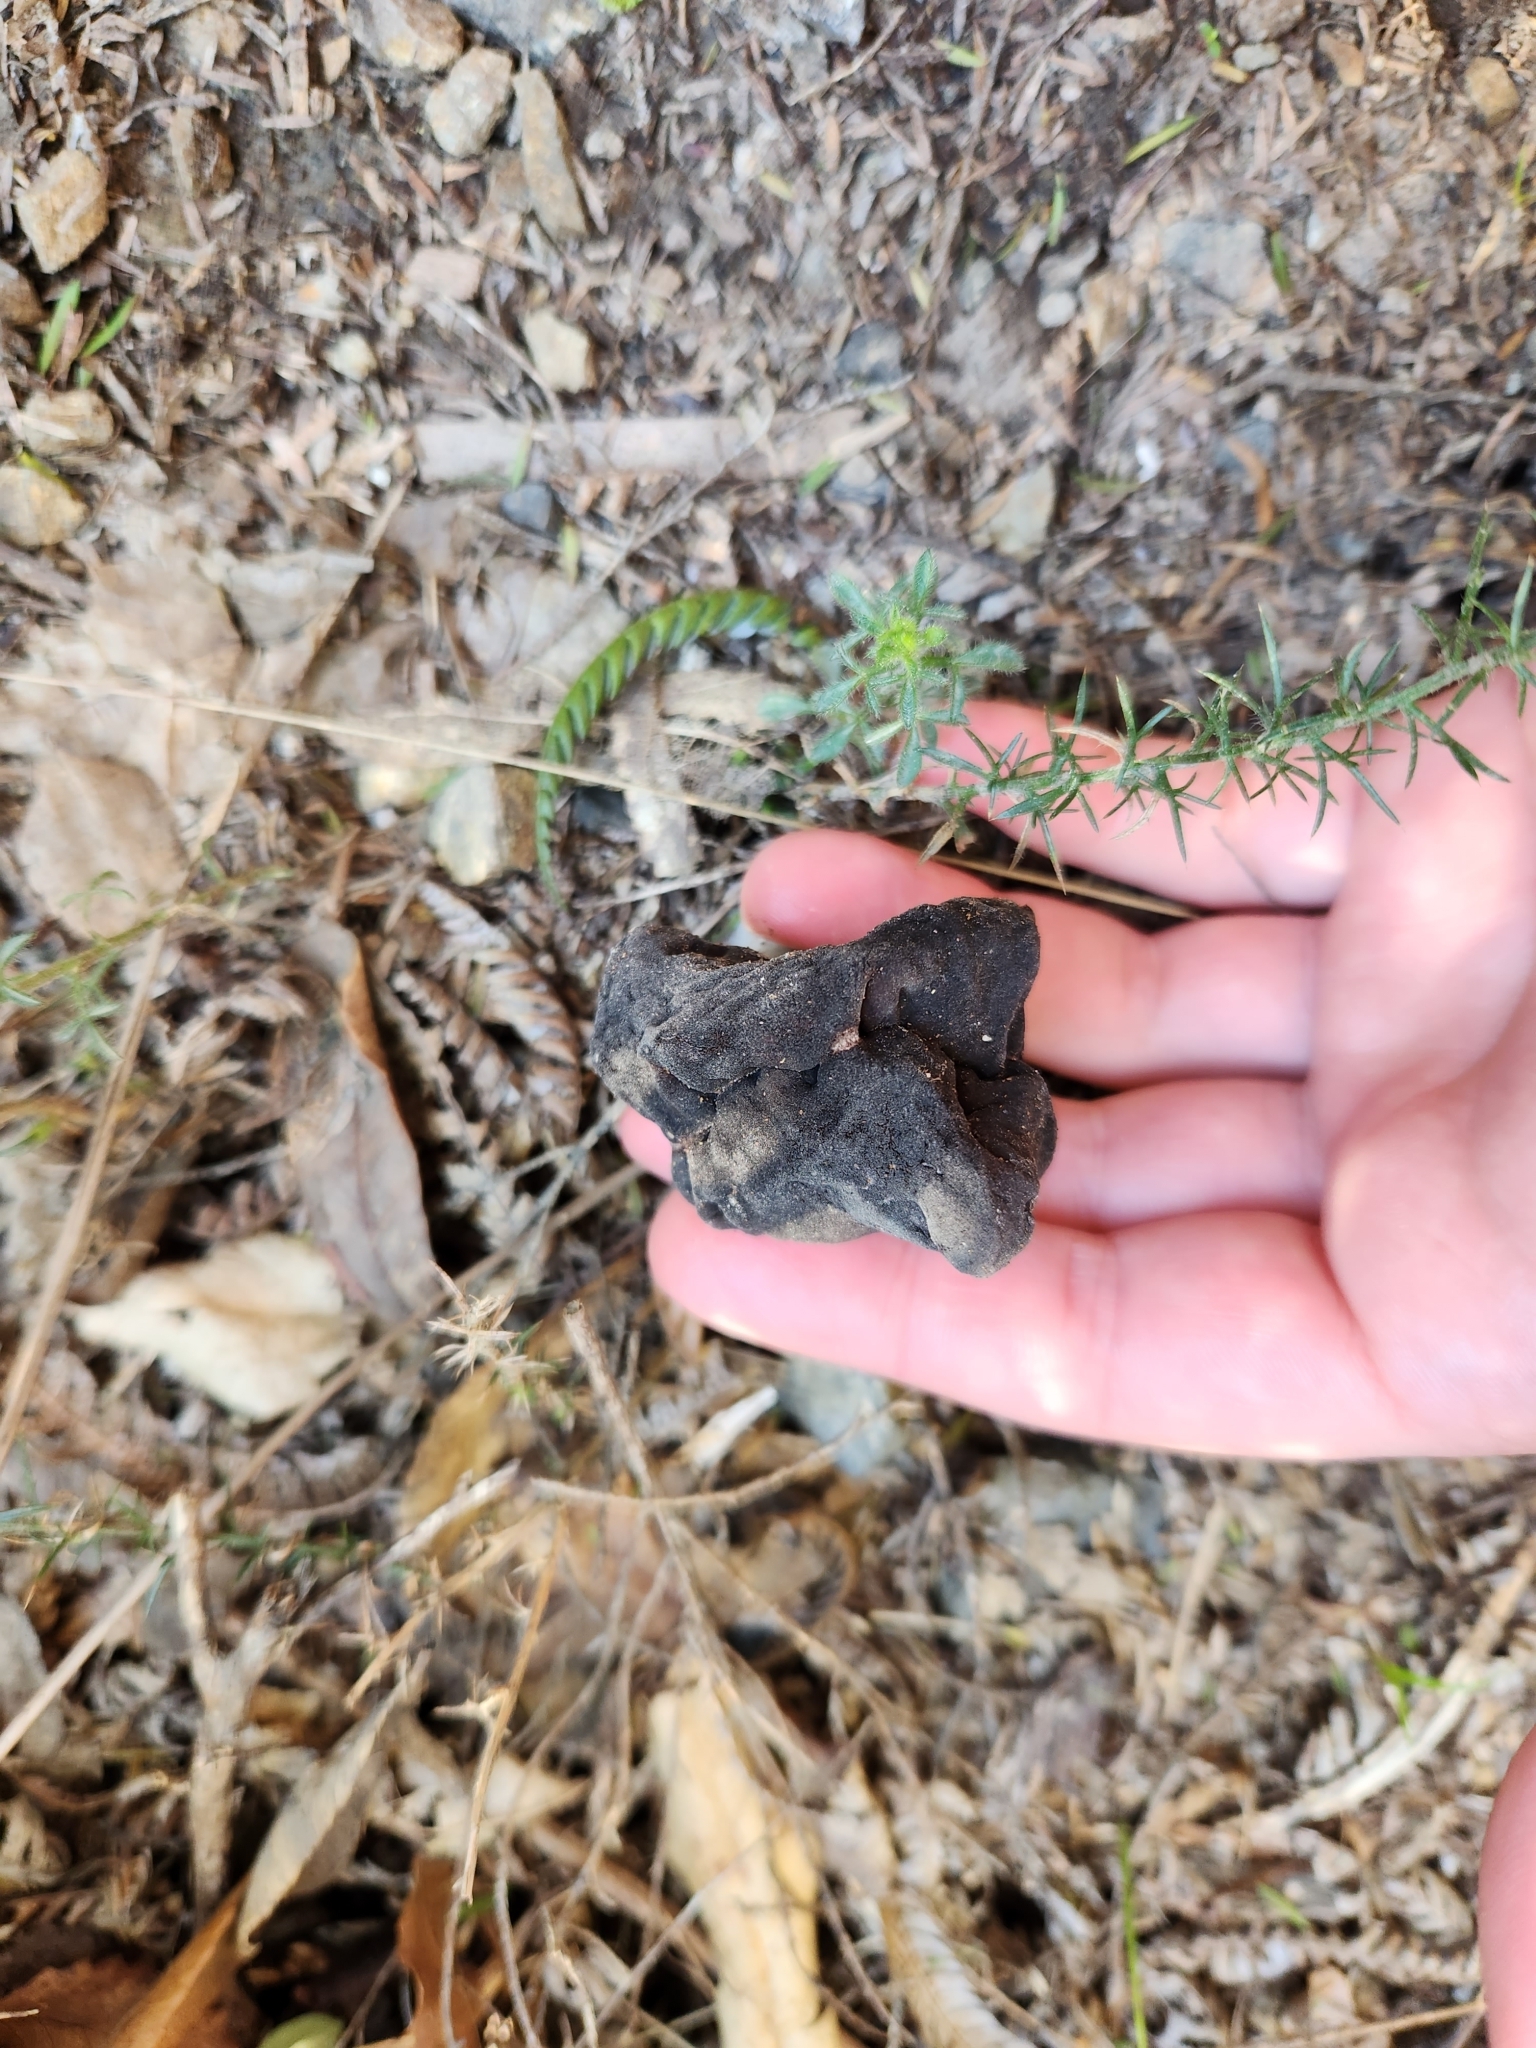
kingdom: Fungi
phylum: Ascomycota
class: Pezizomycetes
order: Pezizales
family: Discinaceae
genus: Gyromitra
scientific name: Gyromitra tasmanica
